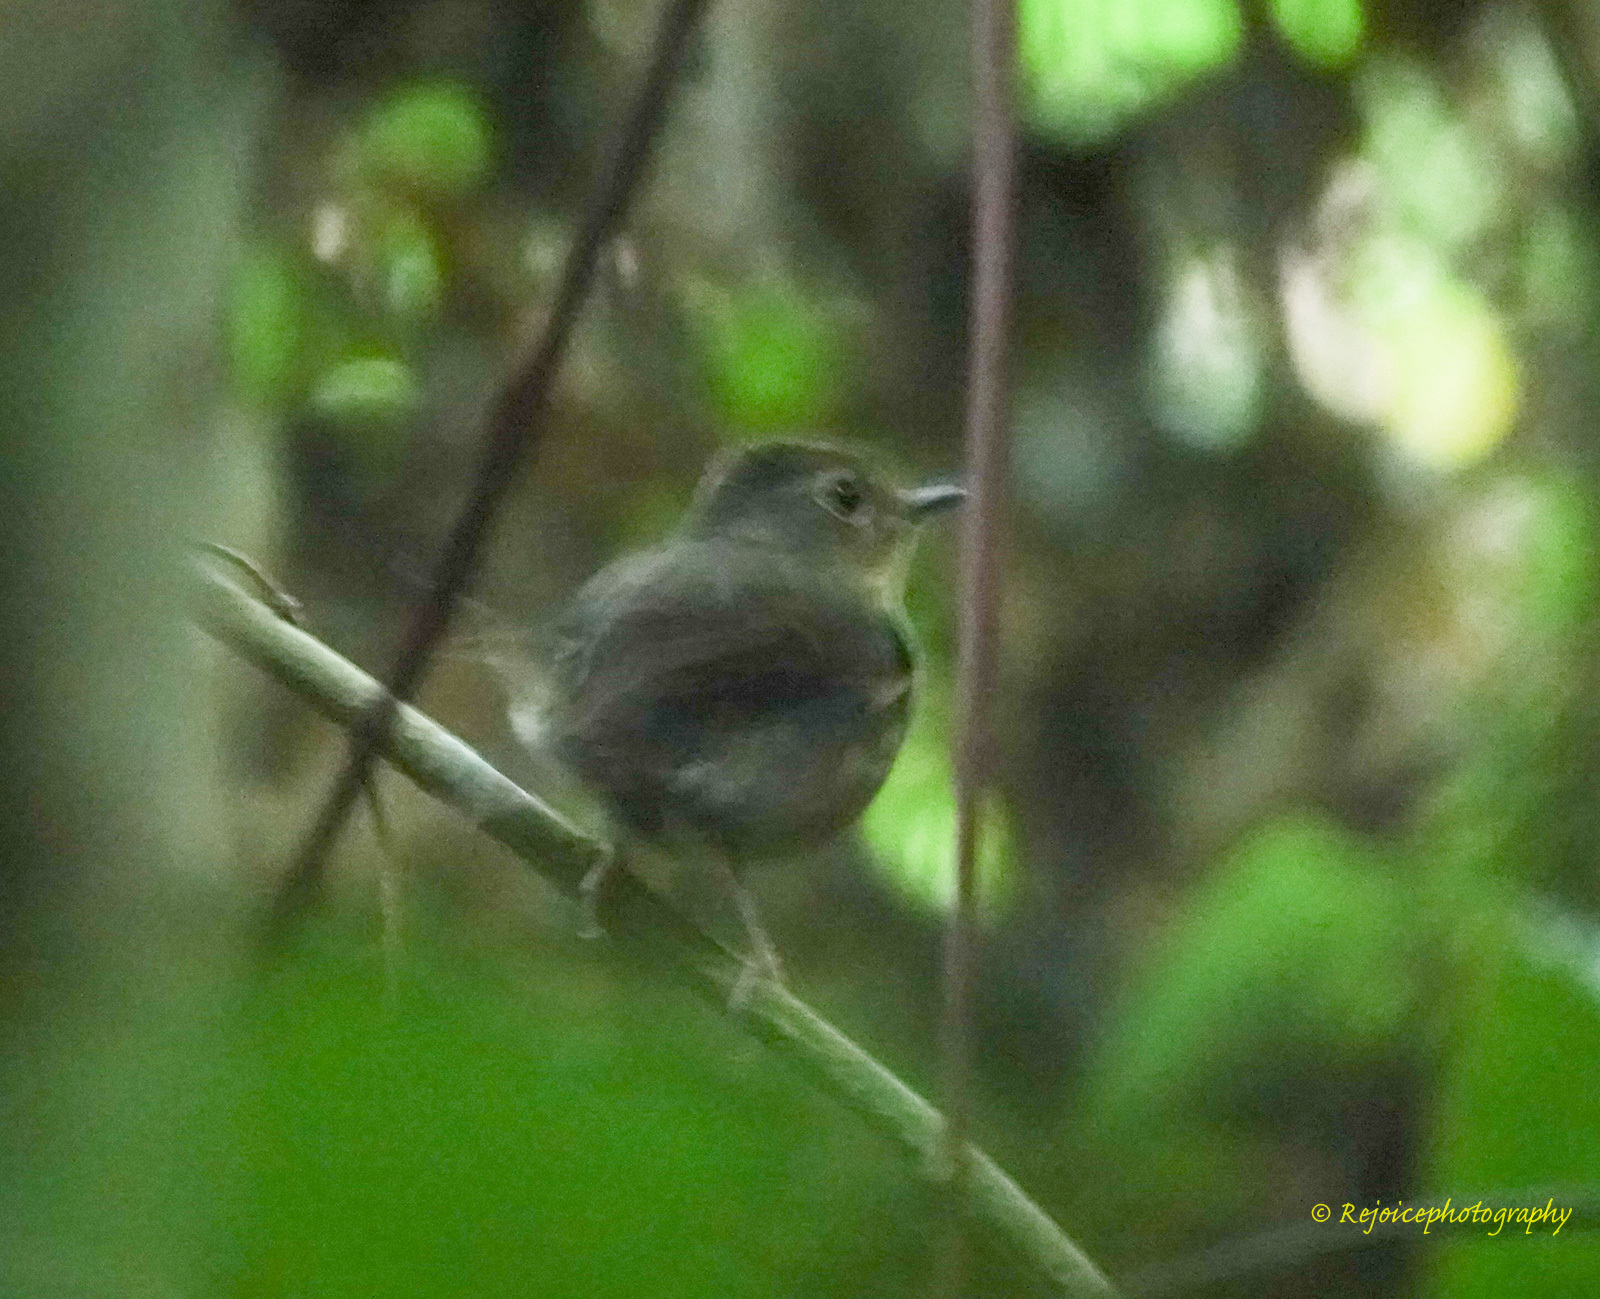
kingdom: Animalia
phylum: Chordata
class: Aves
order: Passeriformes
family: Muscicapidae
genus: Ficedula
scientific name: Ficedula hyperythra
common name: Snowy-browed flycatcher
